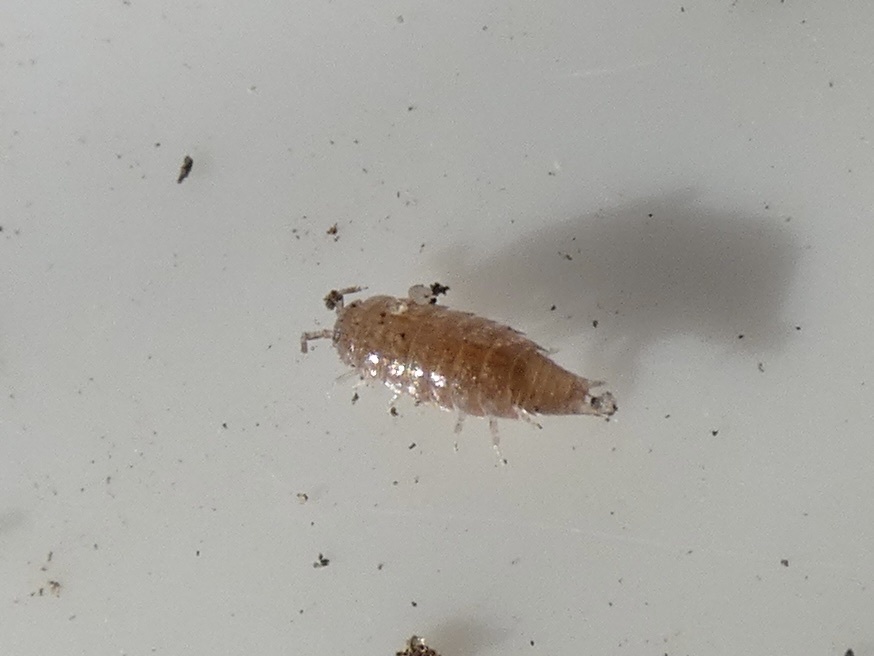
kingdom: Animalia
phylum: Arthropoda
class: Malacostraca
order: Isopoda
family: Trichoniscidae
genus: Trichoniscus
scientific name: Trichoniscus
